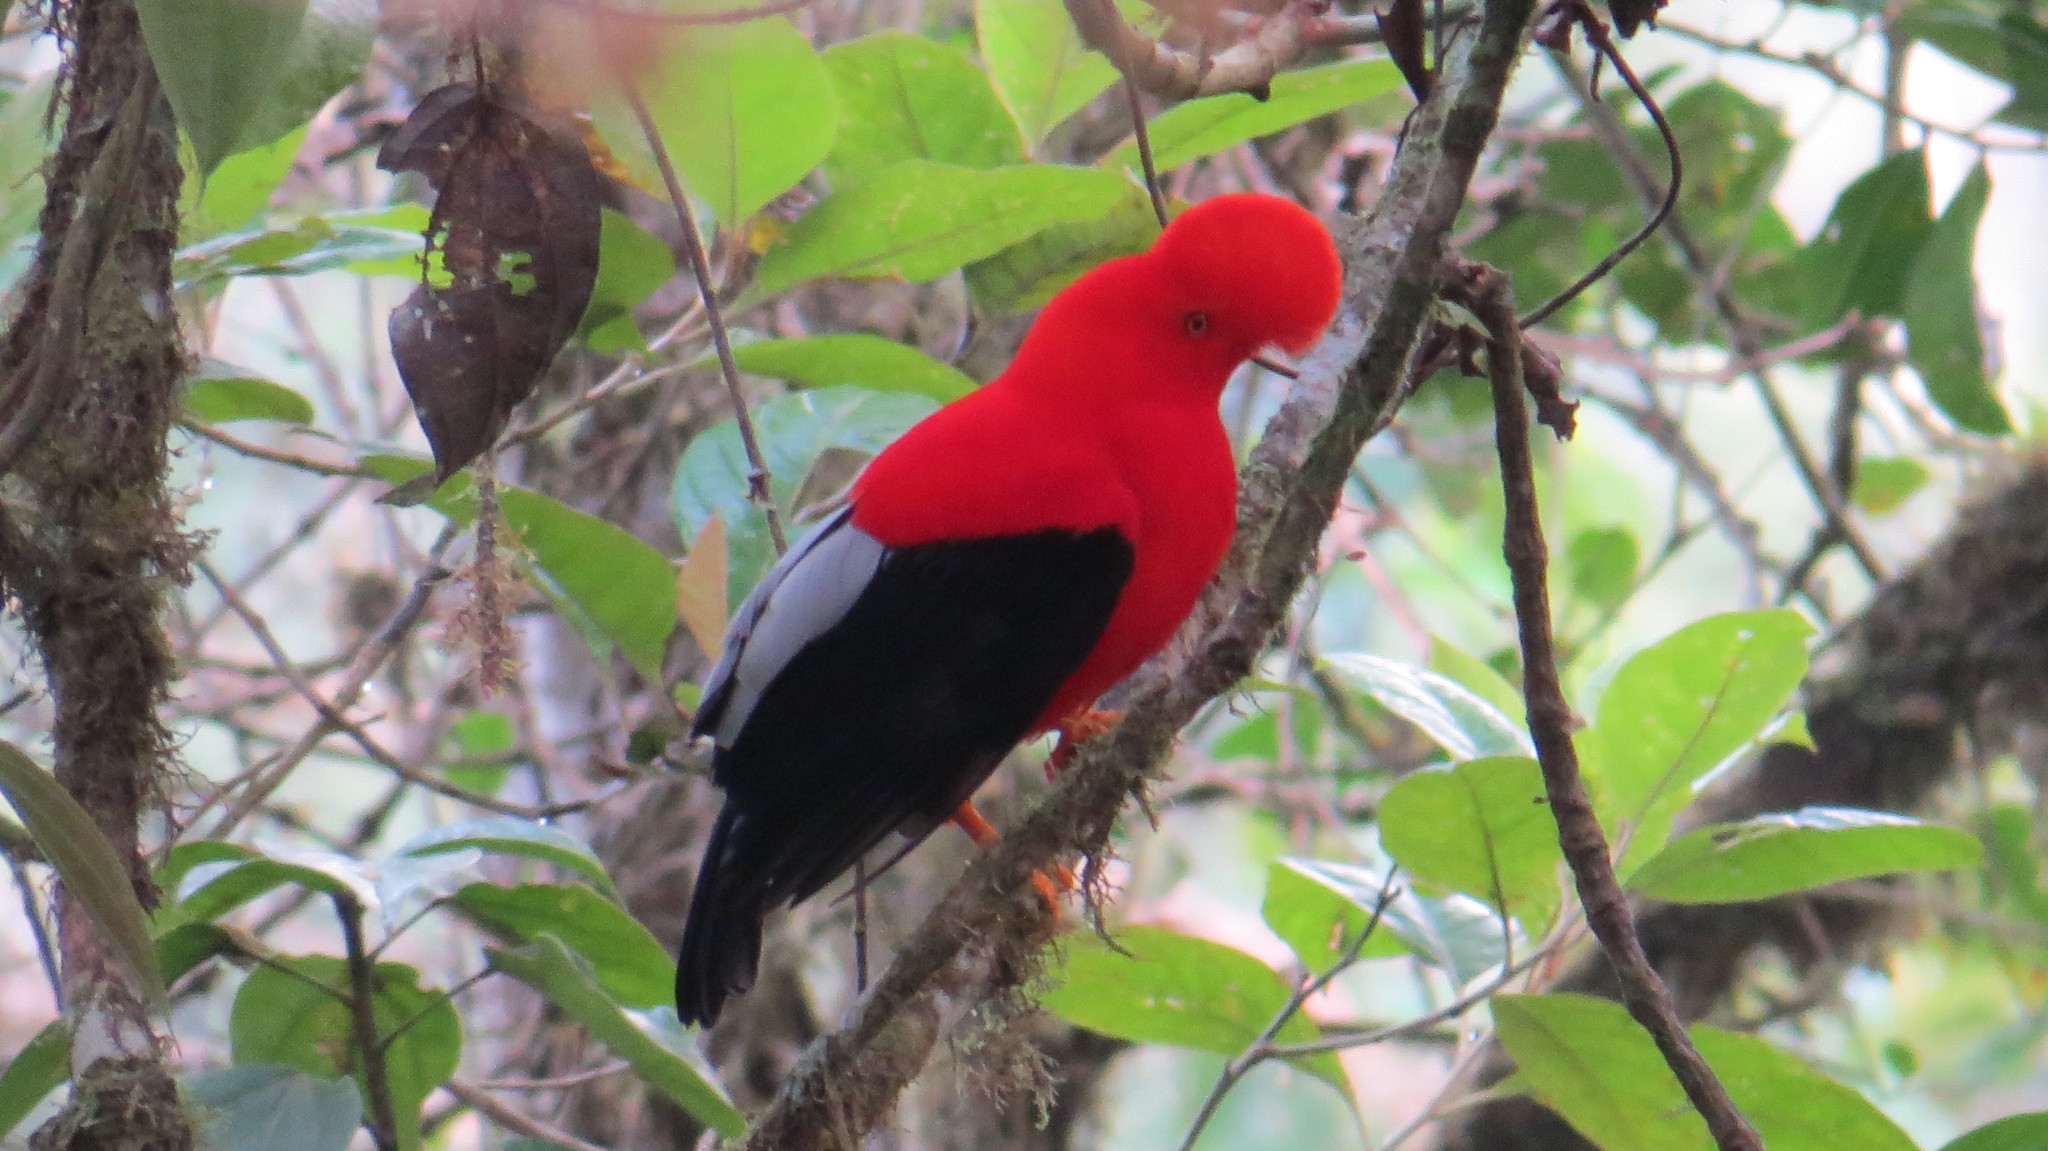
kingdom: Animalia
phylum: Chordata
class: Aves
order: Passeriformes
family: Cotingidae
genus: Rupicola
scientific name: Rupicola peruvianus
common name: Andean cock-of-the-rock
